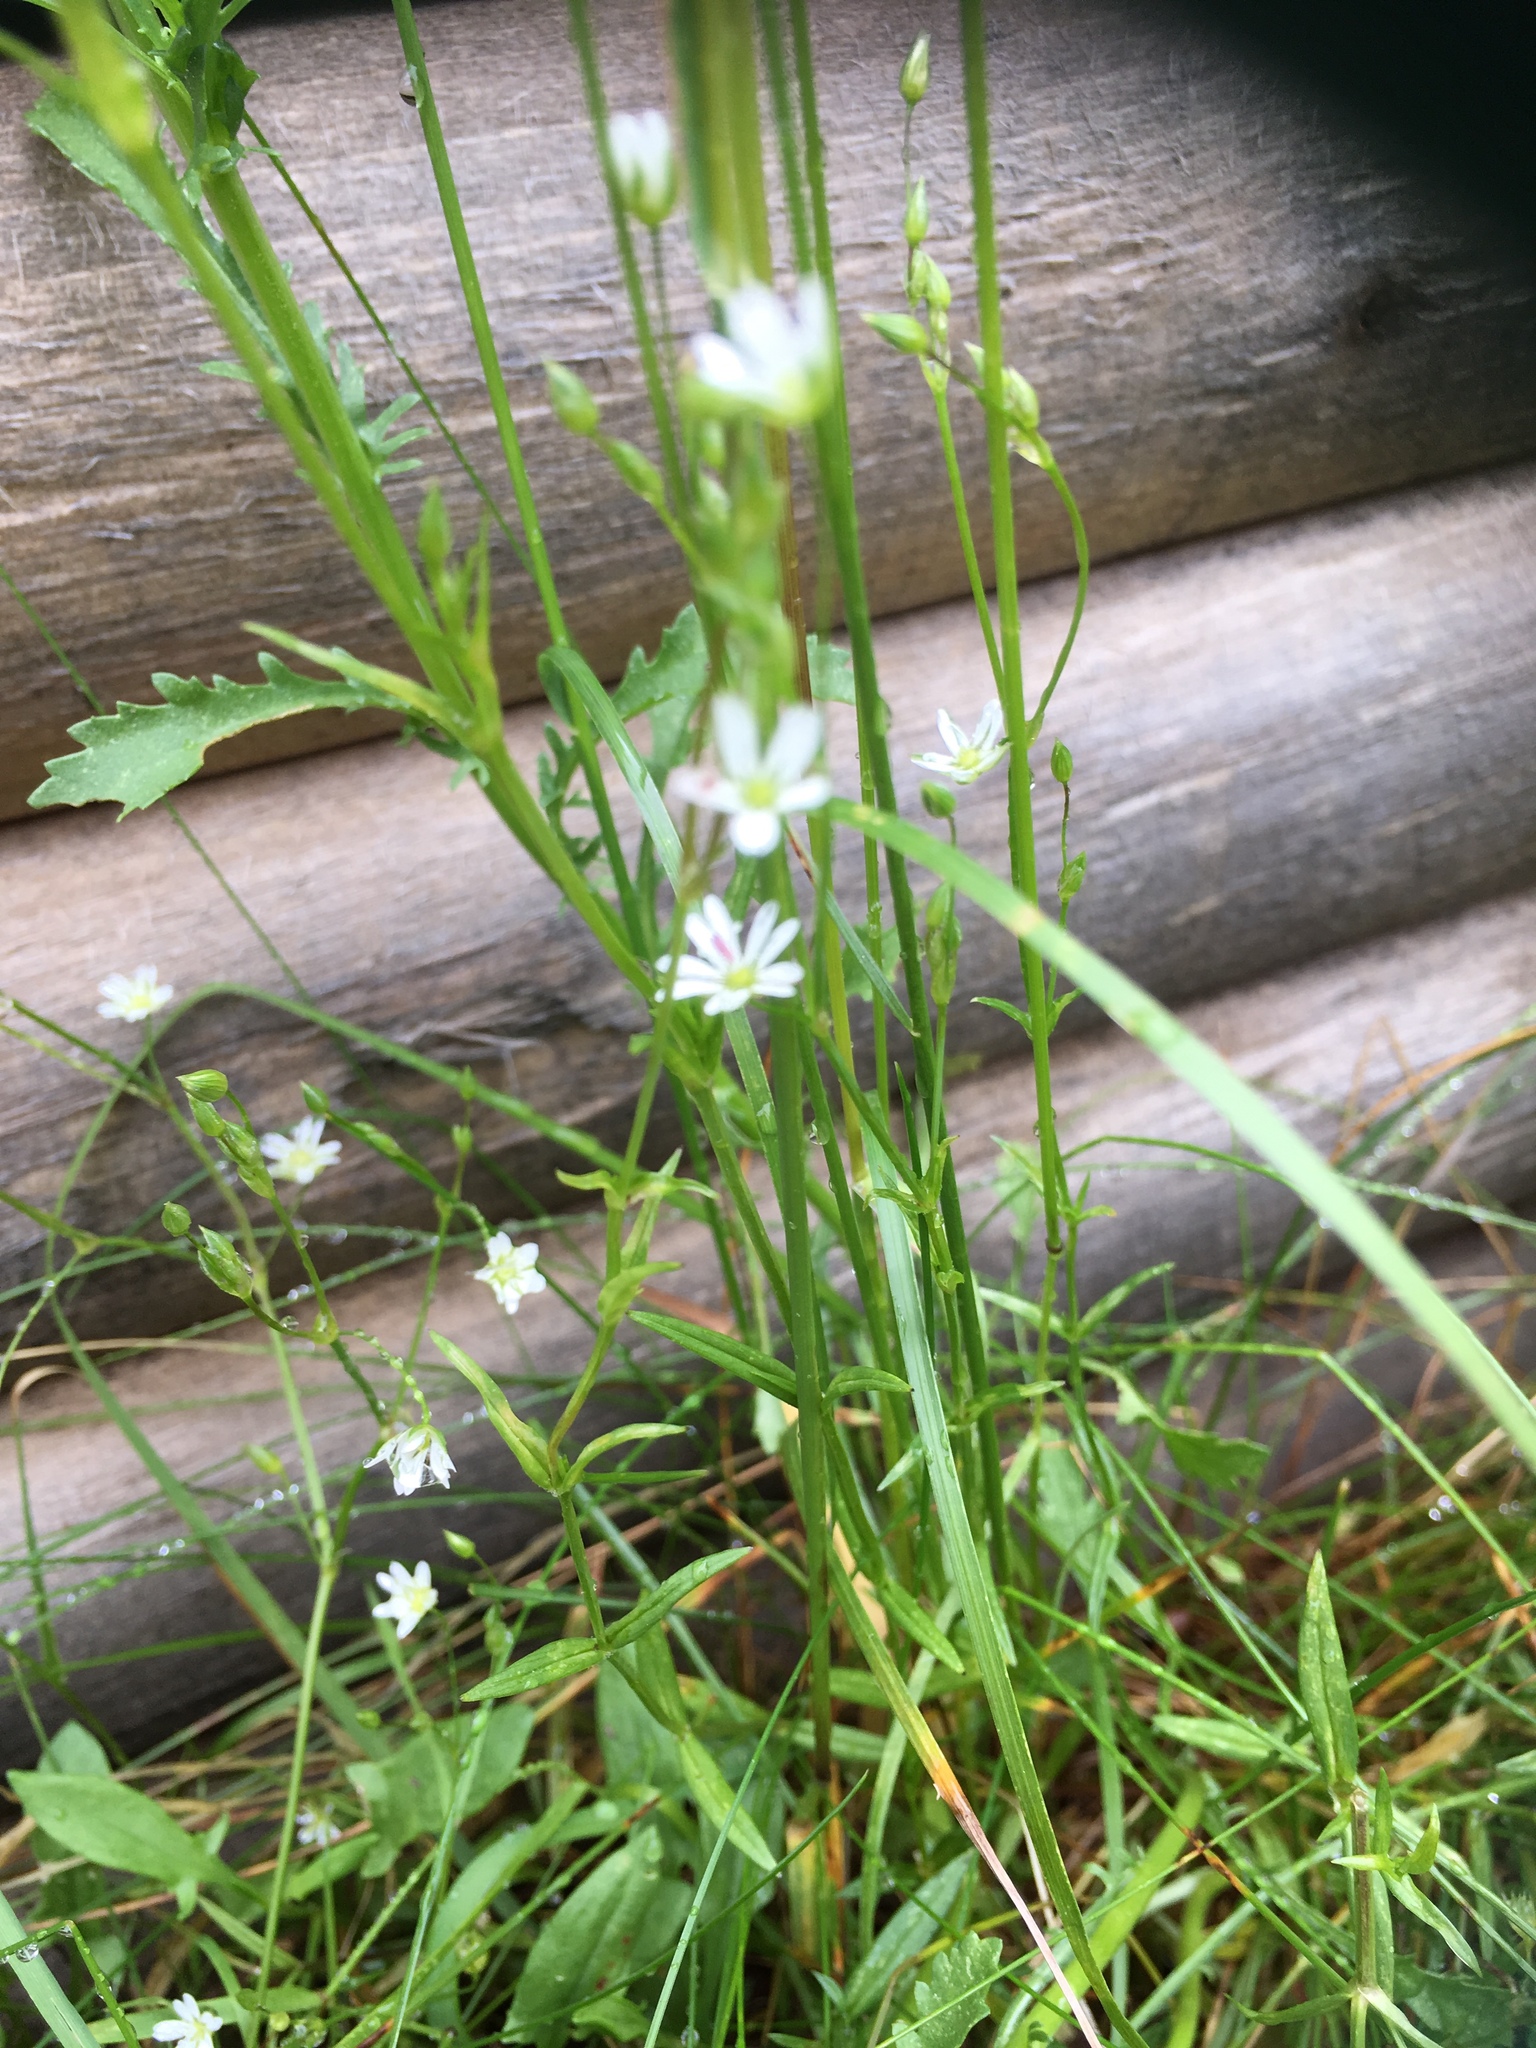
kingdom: Plantae
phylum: Tracheophyta
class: Magnoliopsida
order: Caryophyllales
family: Caryophyllaceae
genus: Stellaria
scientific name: Stellaria graminea
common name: Grass-like starwort
